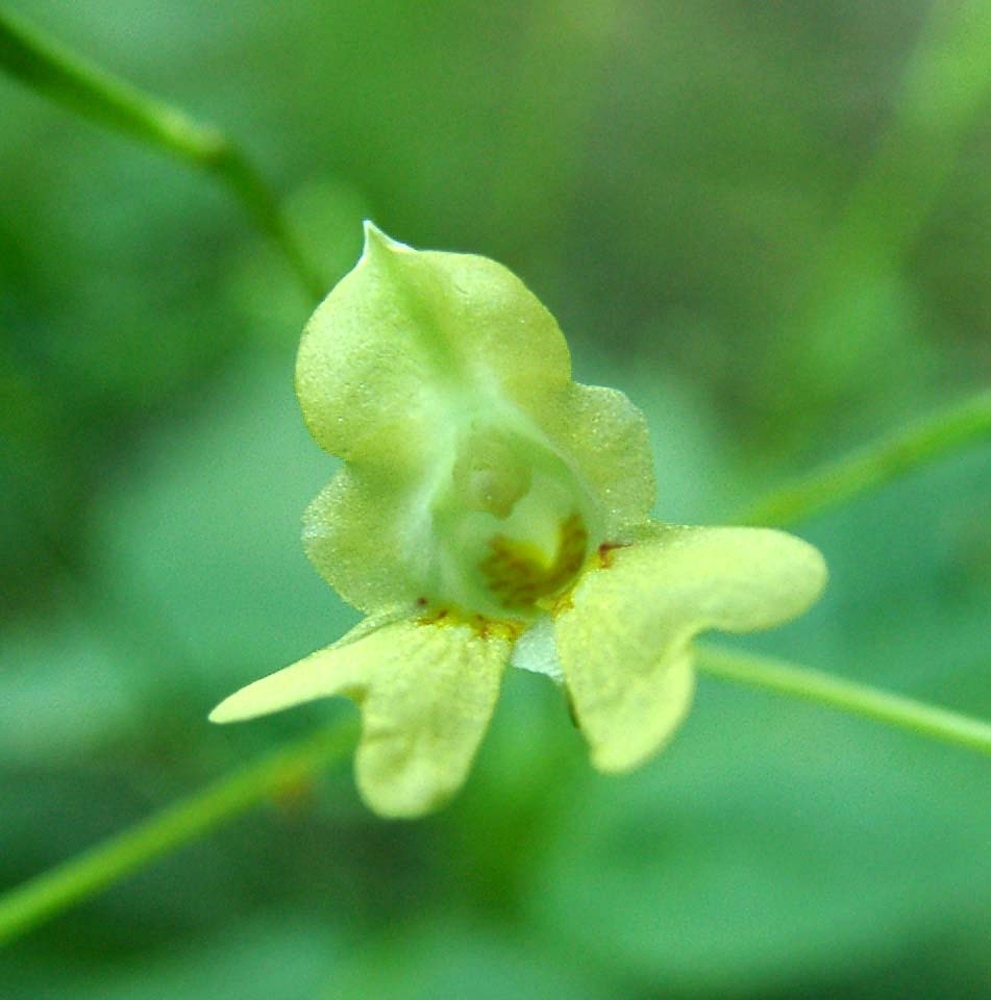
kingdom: Plantae
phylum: Tracheophyta
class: Magnoliopsida
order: Ericales
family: Balsaminaceae
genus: Impatiens
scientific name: Impatiens parviflora
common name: Small balsam
